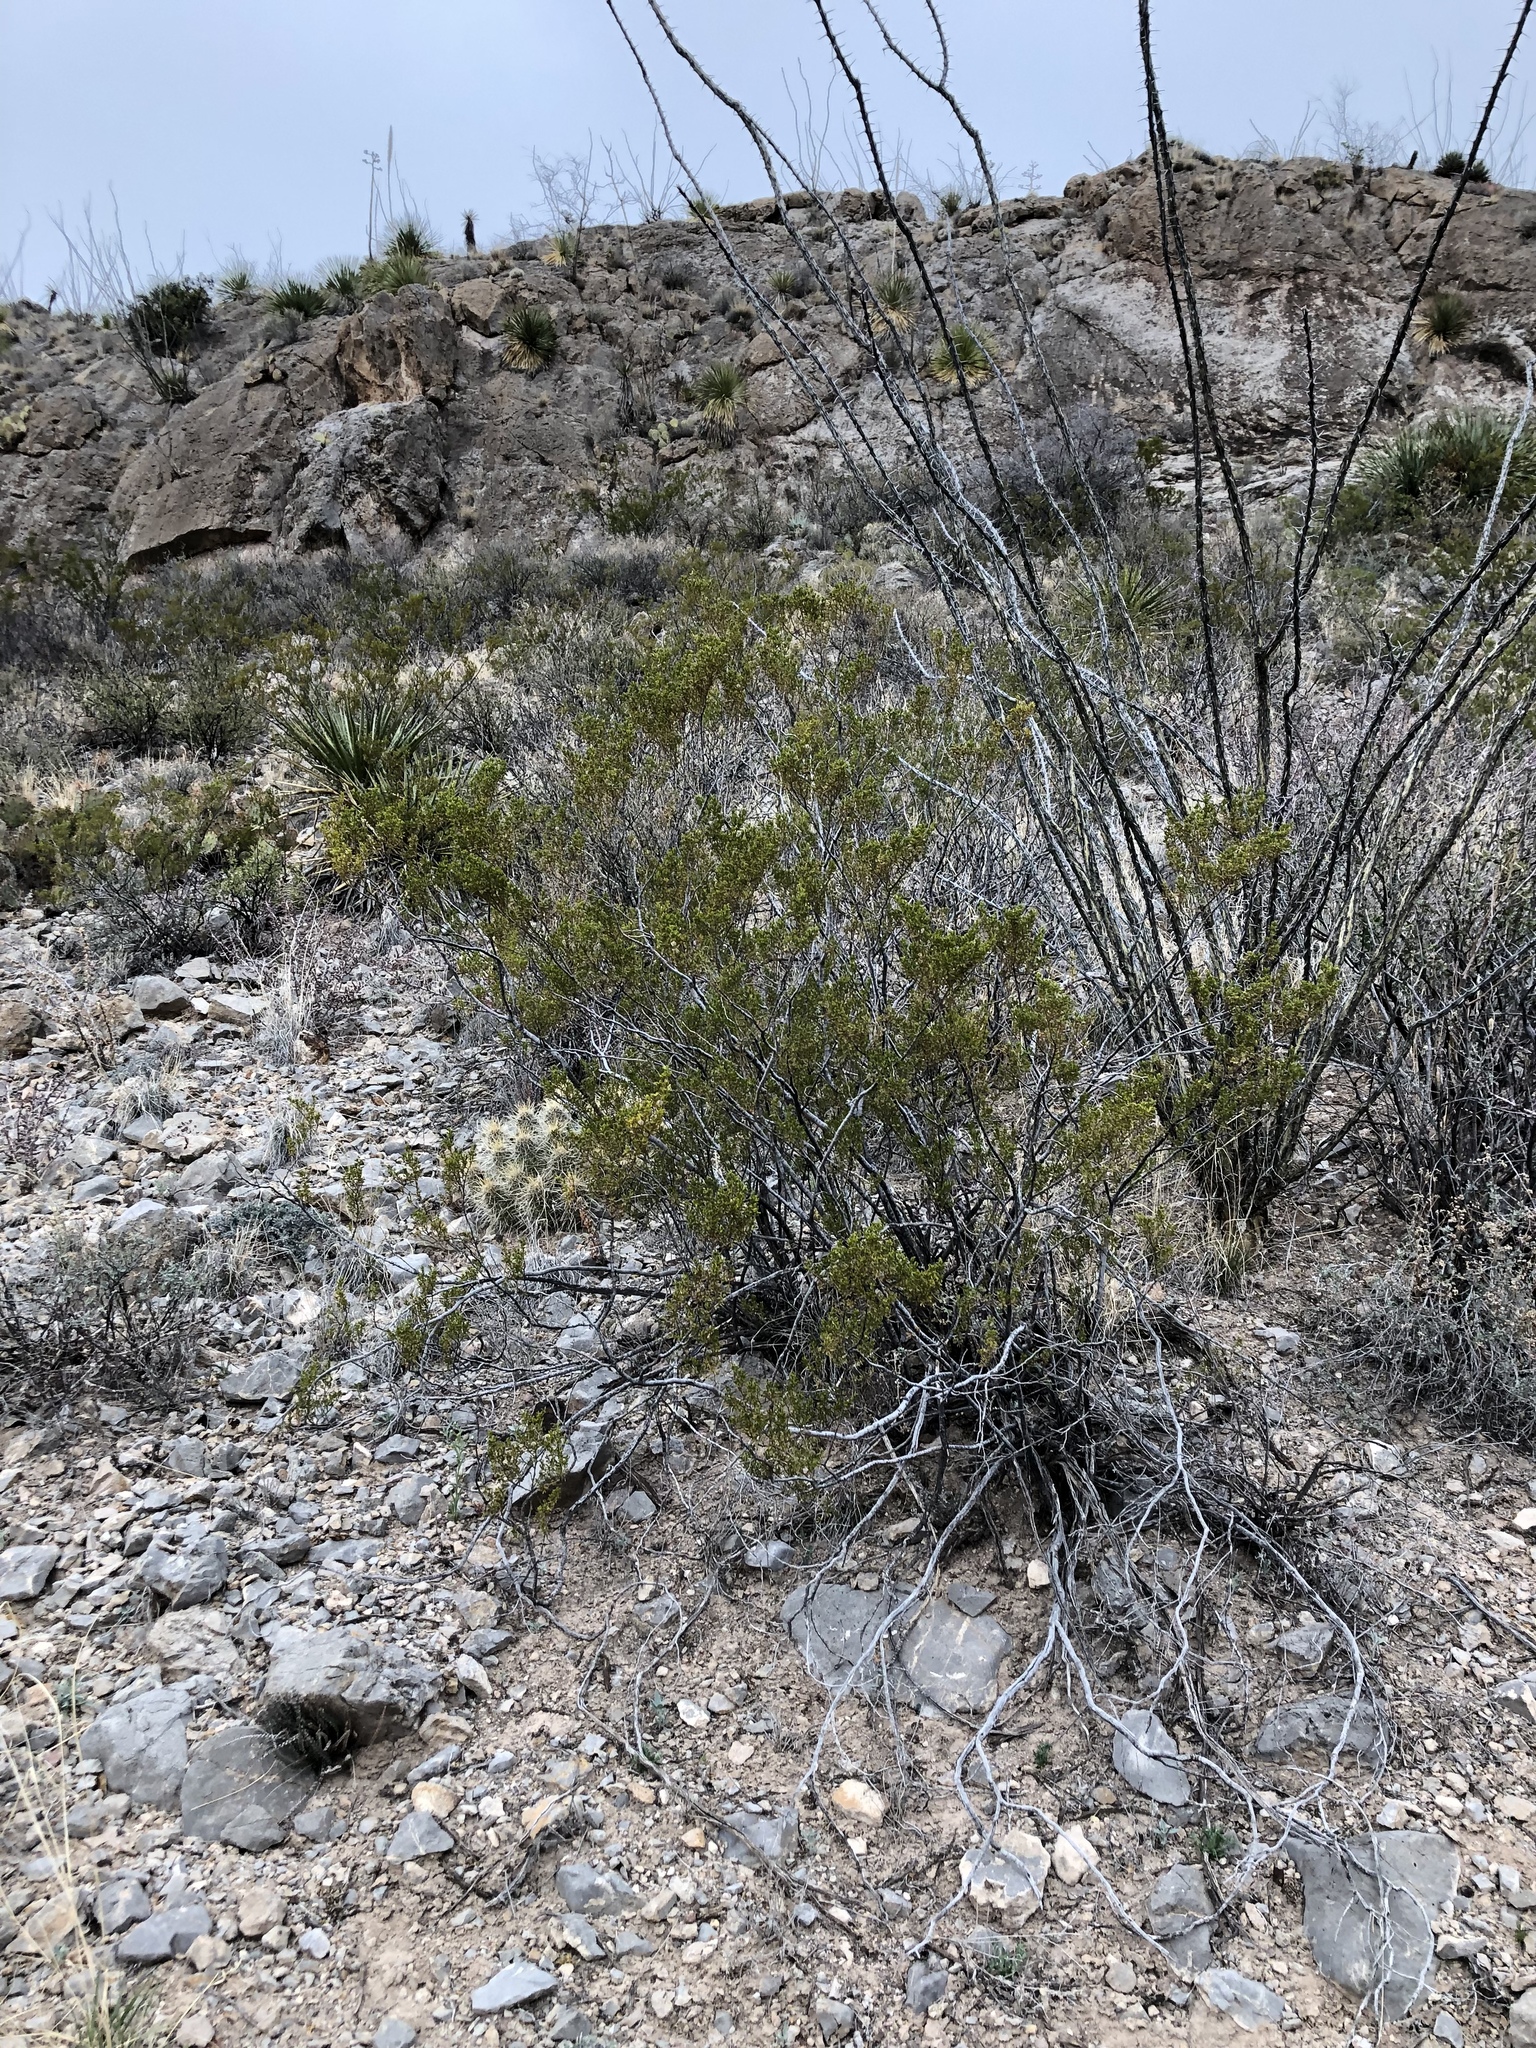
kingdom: Plantae
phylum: Tracheophyta
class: Magnoliopsida
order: Zygophyllales
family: Zygophyllaceae
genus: Larrea
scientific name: Larrea tridentata
